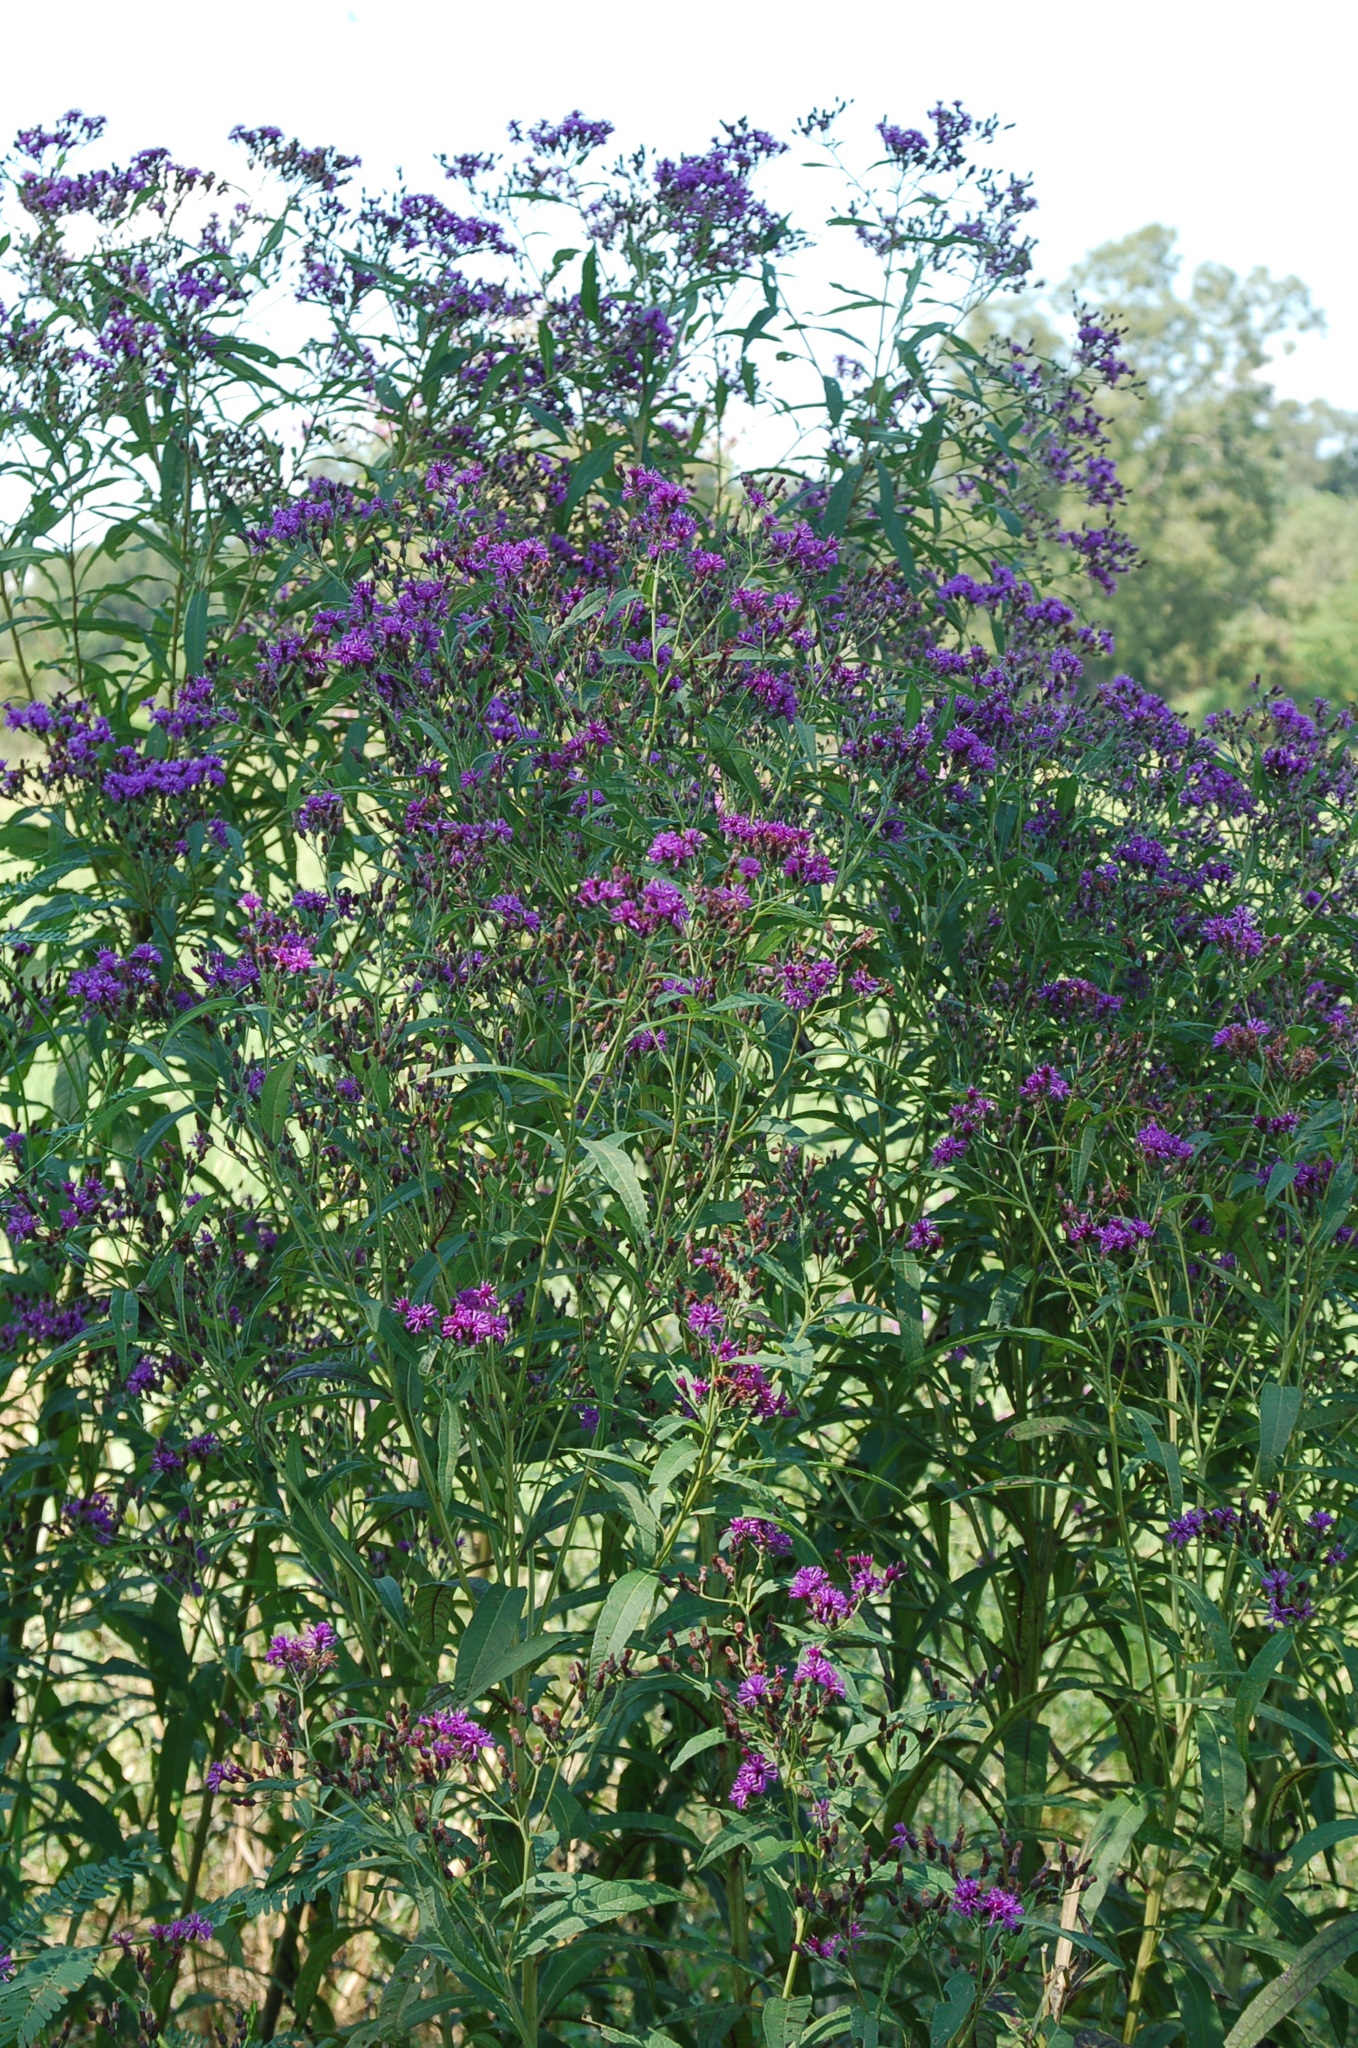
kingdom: Plantae
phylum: Tracheophyta
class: Magnoliopsida
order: Asterales
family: Asteraceae
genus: Vernonia
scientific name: Vernonia gigantea
